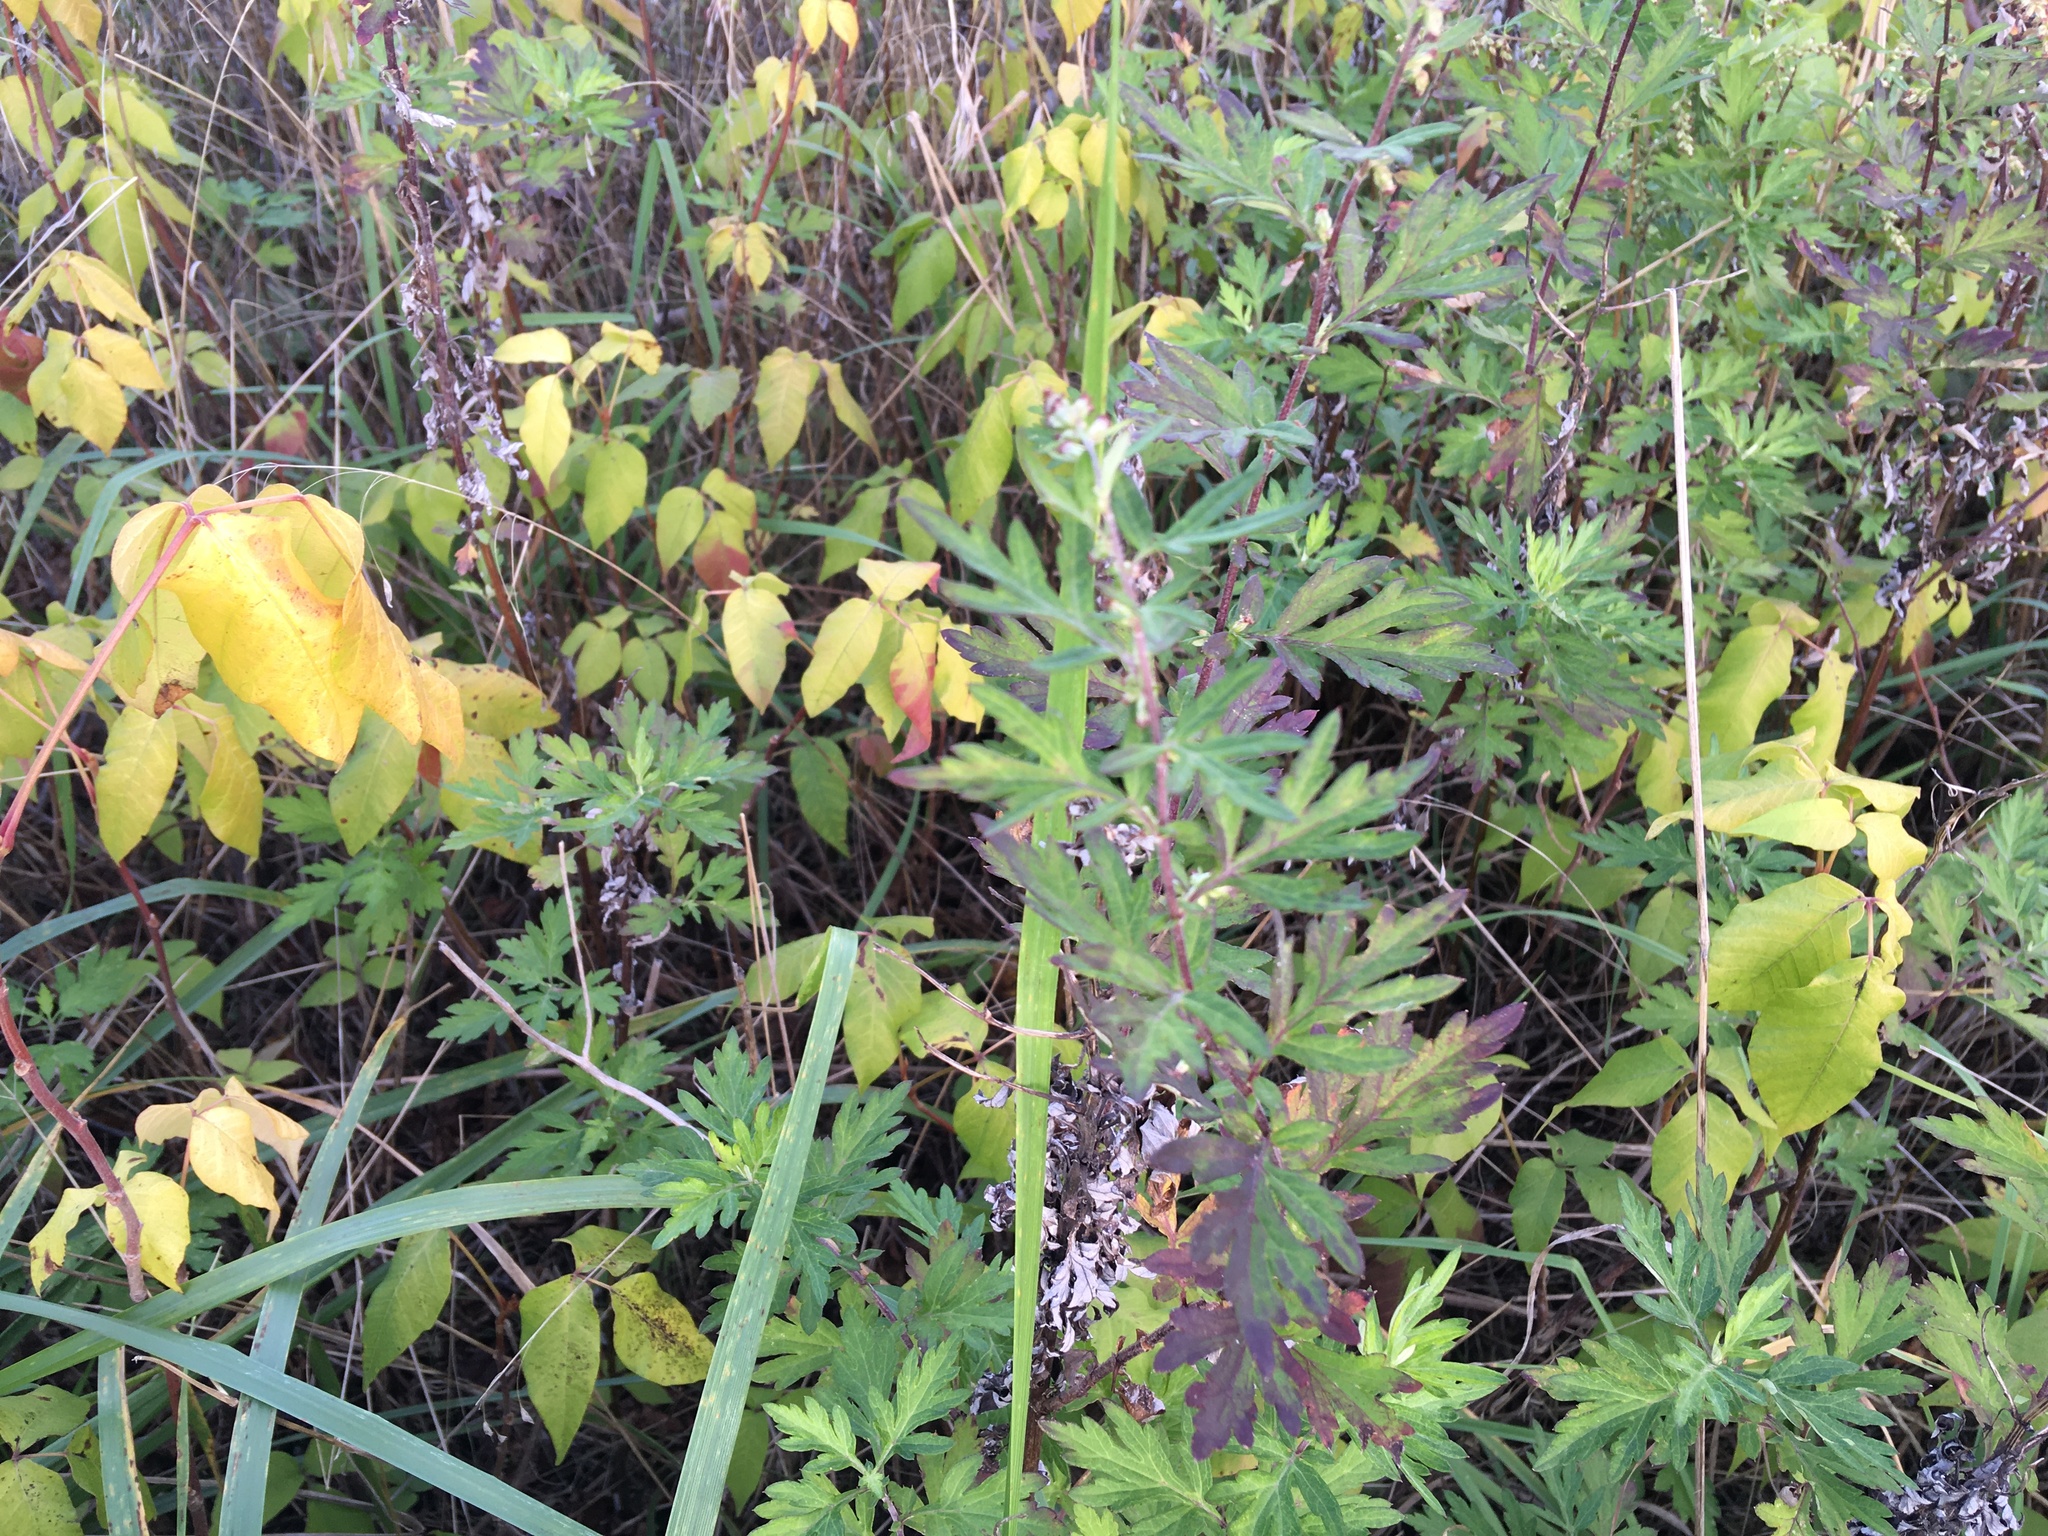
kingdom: Plantae
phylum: Tracheophyta
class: Magnoliopsida
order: Asterales
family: Asteraceae
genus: Artemisia
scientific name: Artemisia vulgaris
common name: Mugwort
